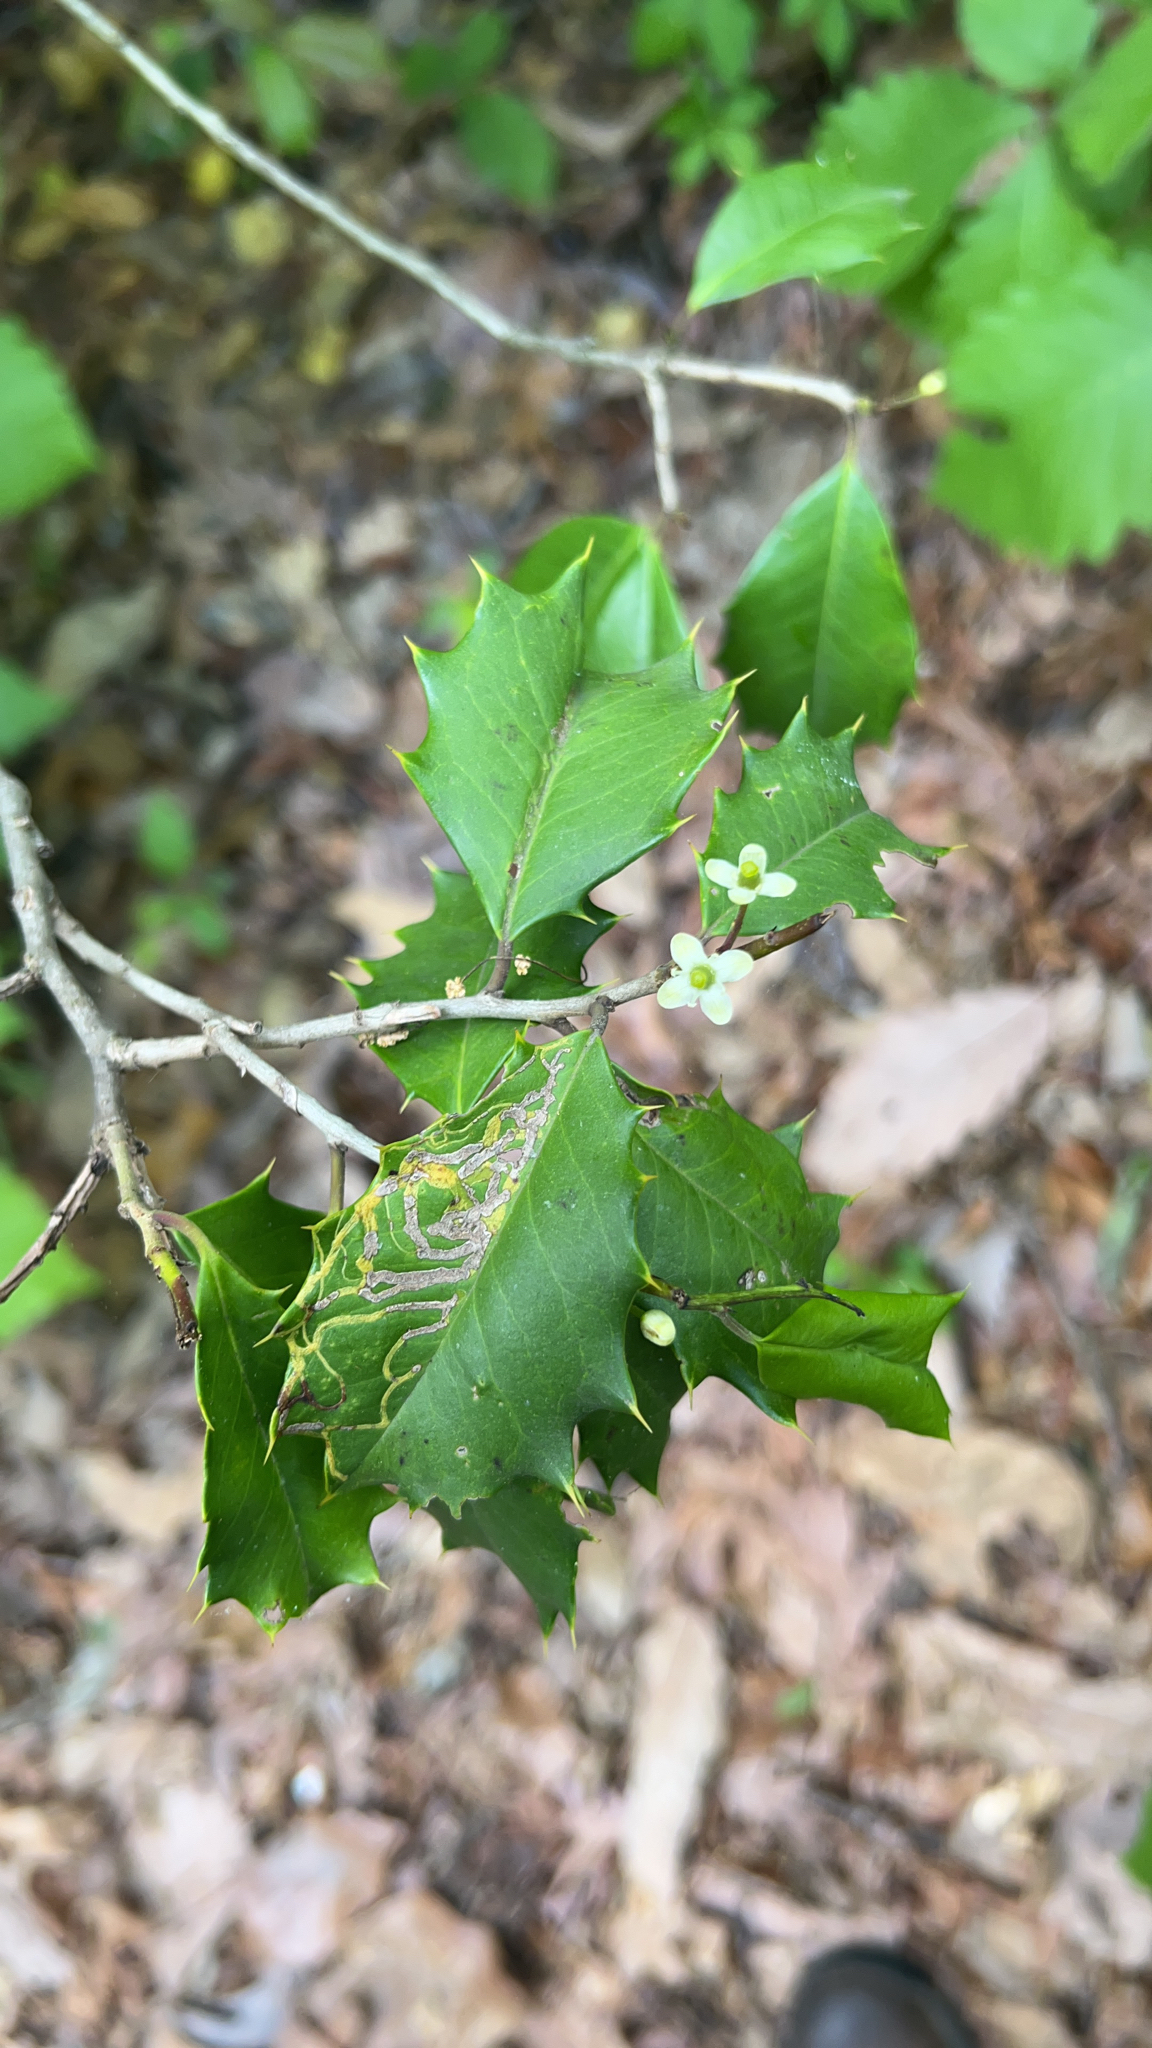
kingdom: Plantae
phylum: Tracheophyta
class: Magnoliopsida
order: Aquifoliales
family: Aquifoliaceae
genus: Ilex
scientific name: Ilex opaca
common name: American holly
